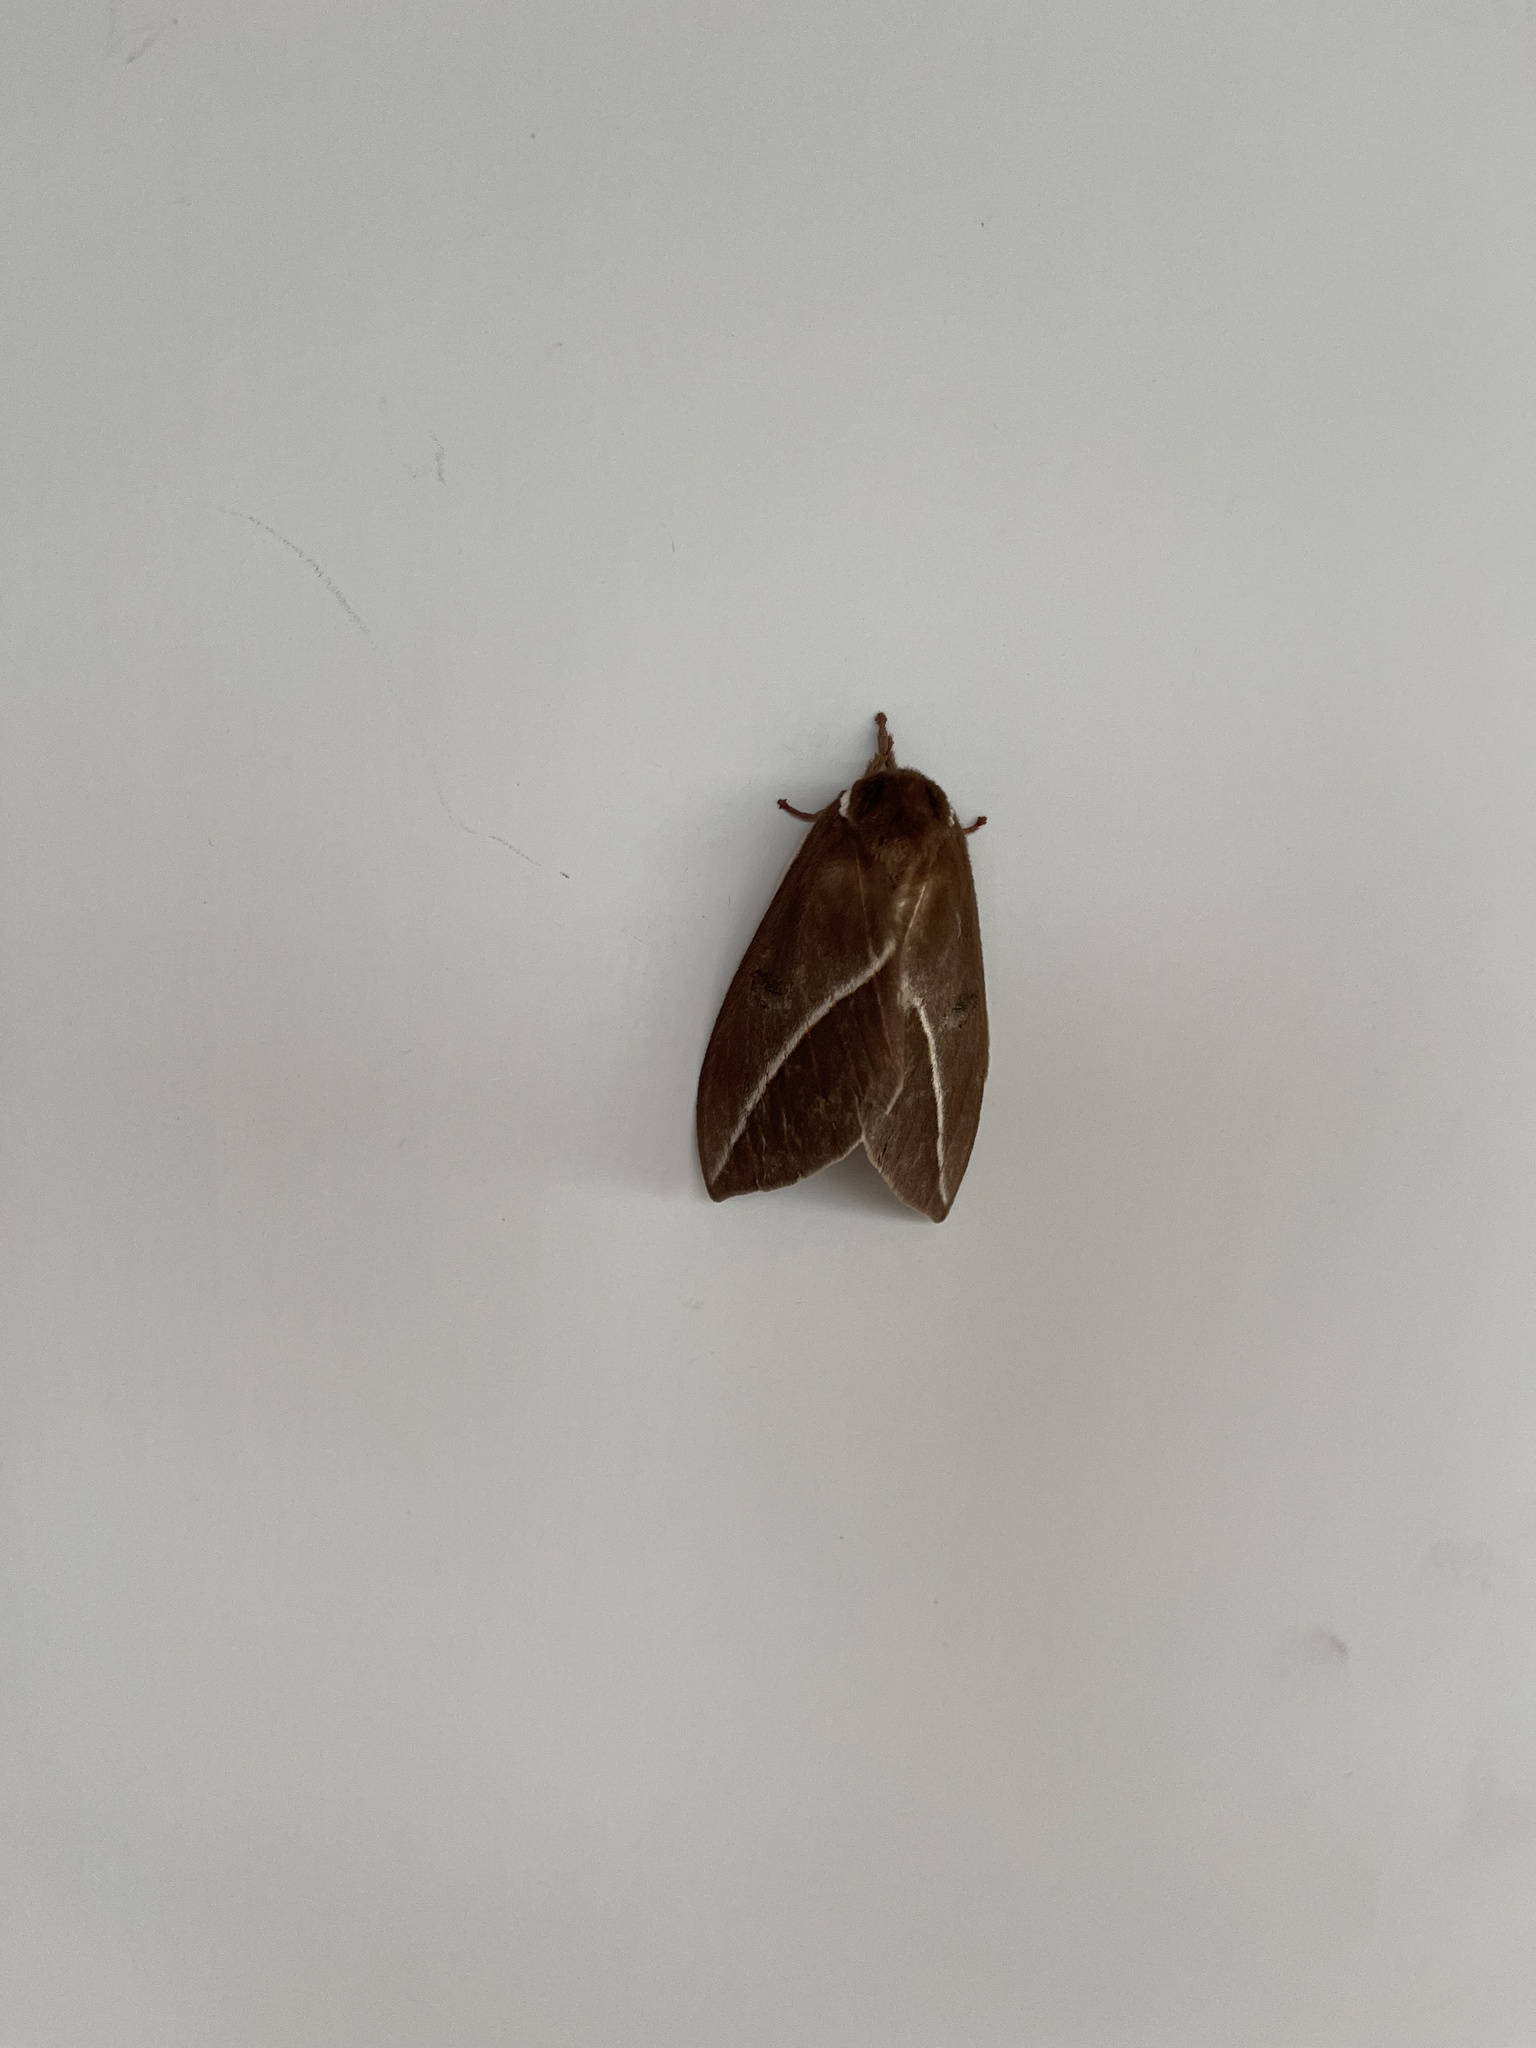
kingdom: Animalia
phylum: Arthropoda
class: Insecta
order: Lepidoptera
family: Saturniidae
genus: Automeris
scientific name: Automeris zephyria
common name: Zephyr eyed silkmoth
